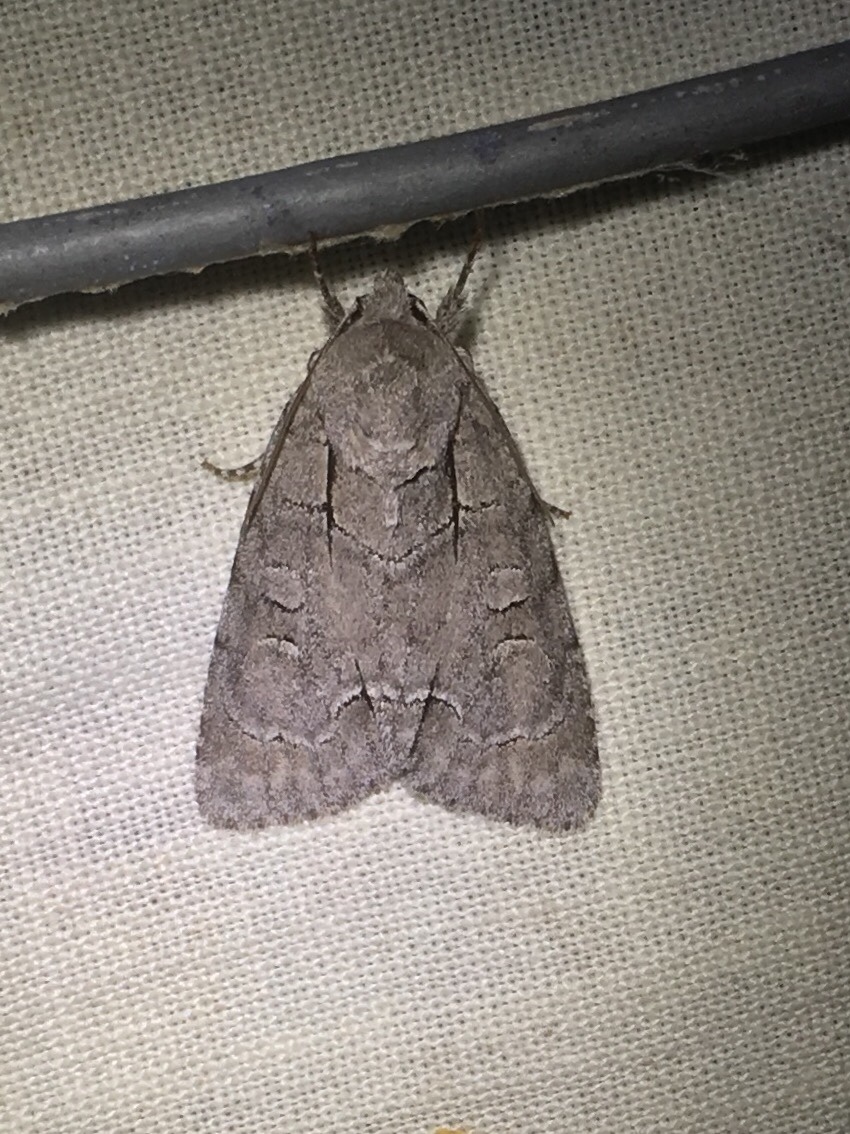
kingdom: Animalia
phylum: Arthropoda
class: Insecta
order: Lepidoptera
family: Noctuidae
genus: Acronicta
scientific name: Acronicta radcliffei
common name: Radcliffe's dagger
